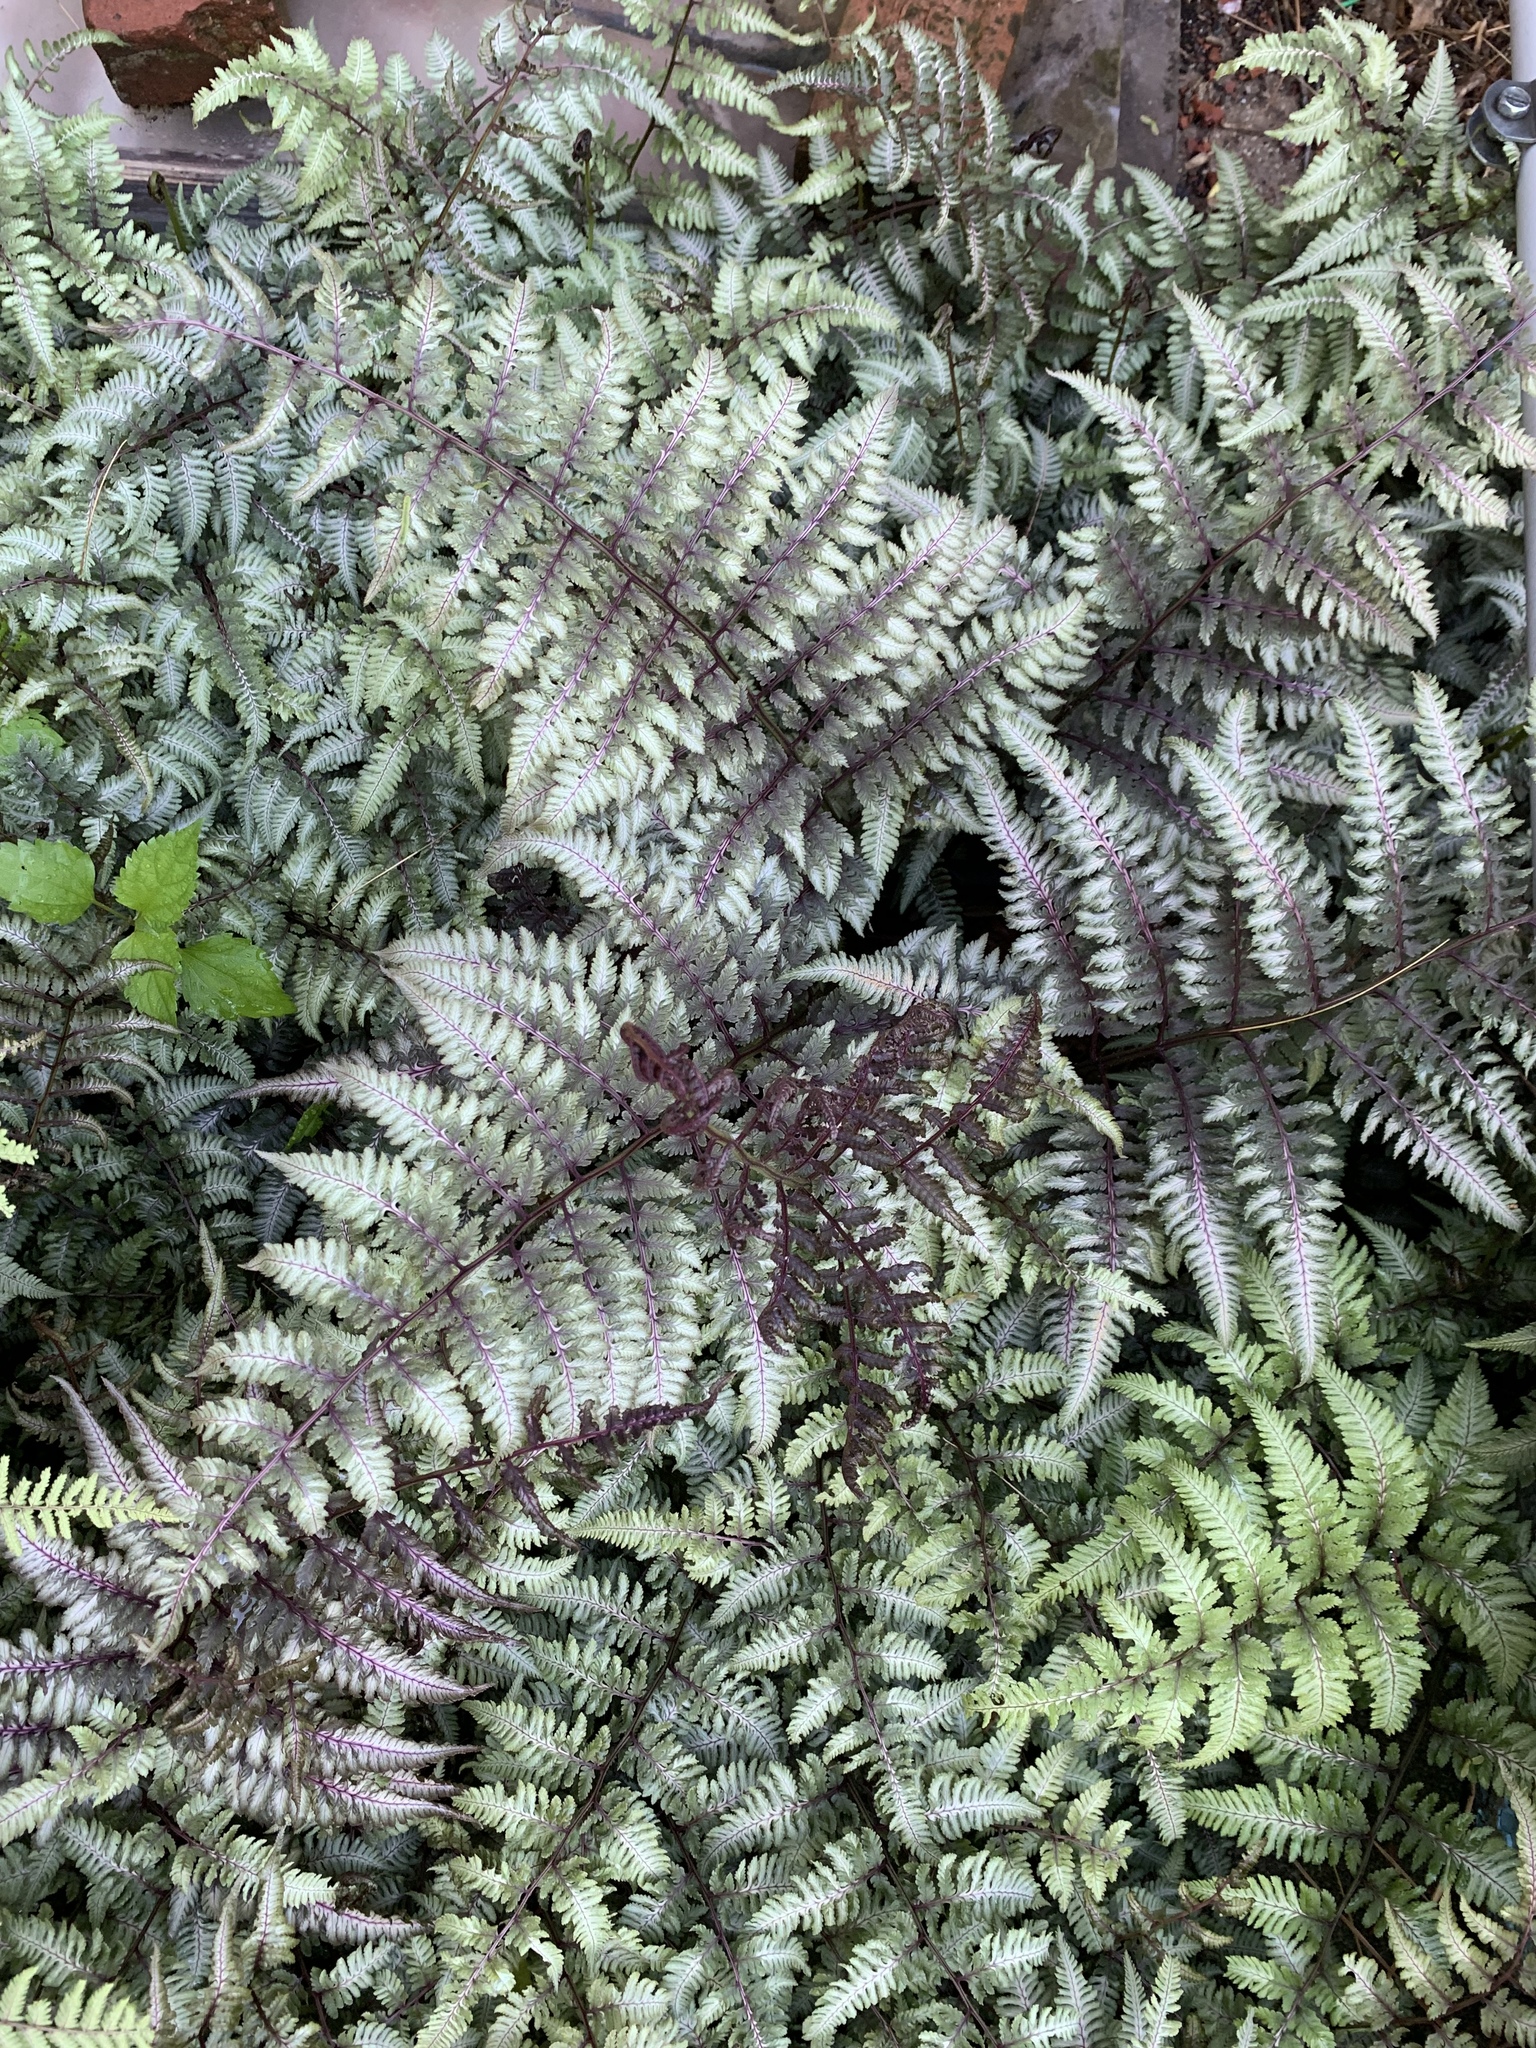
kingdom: Plantae
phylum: Tracheophyta
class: Polypodiopsida
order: Polypodiales
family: Athyriaceae
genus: Anisocampium
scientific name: Anisocampium niponicum
